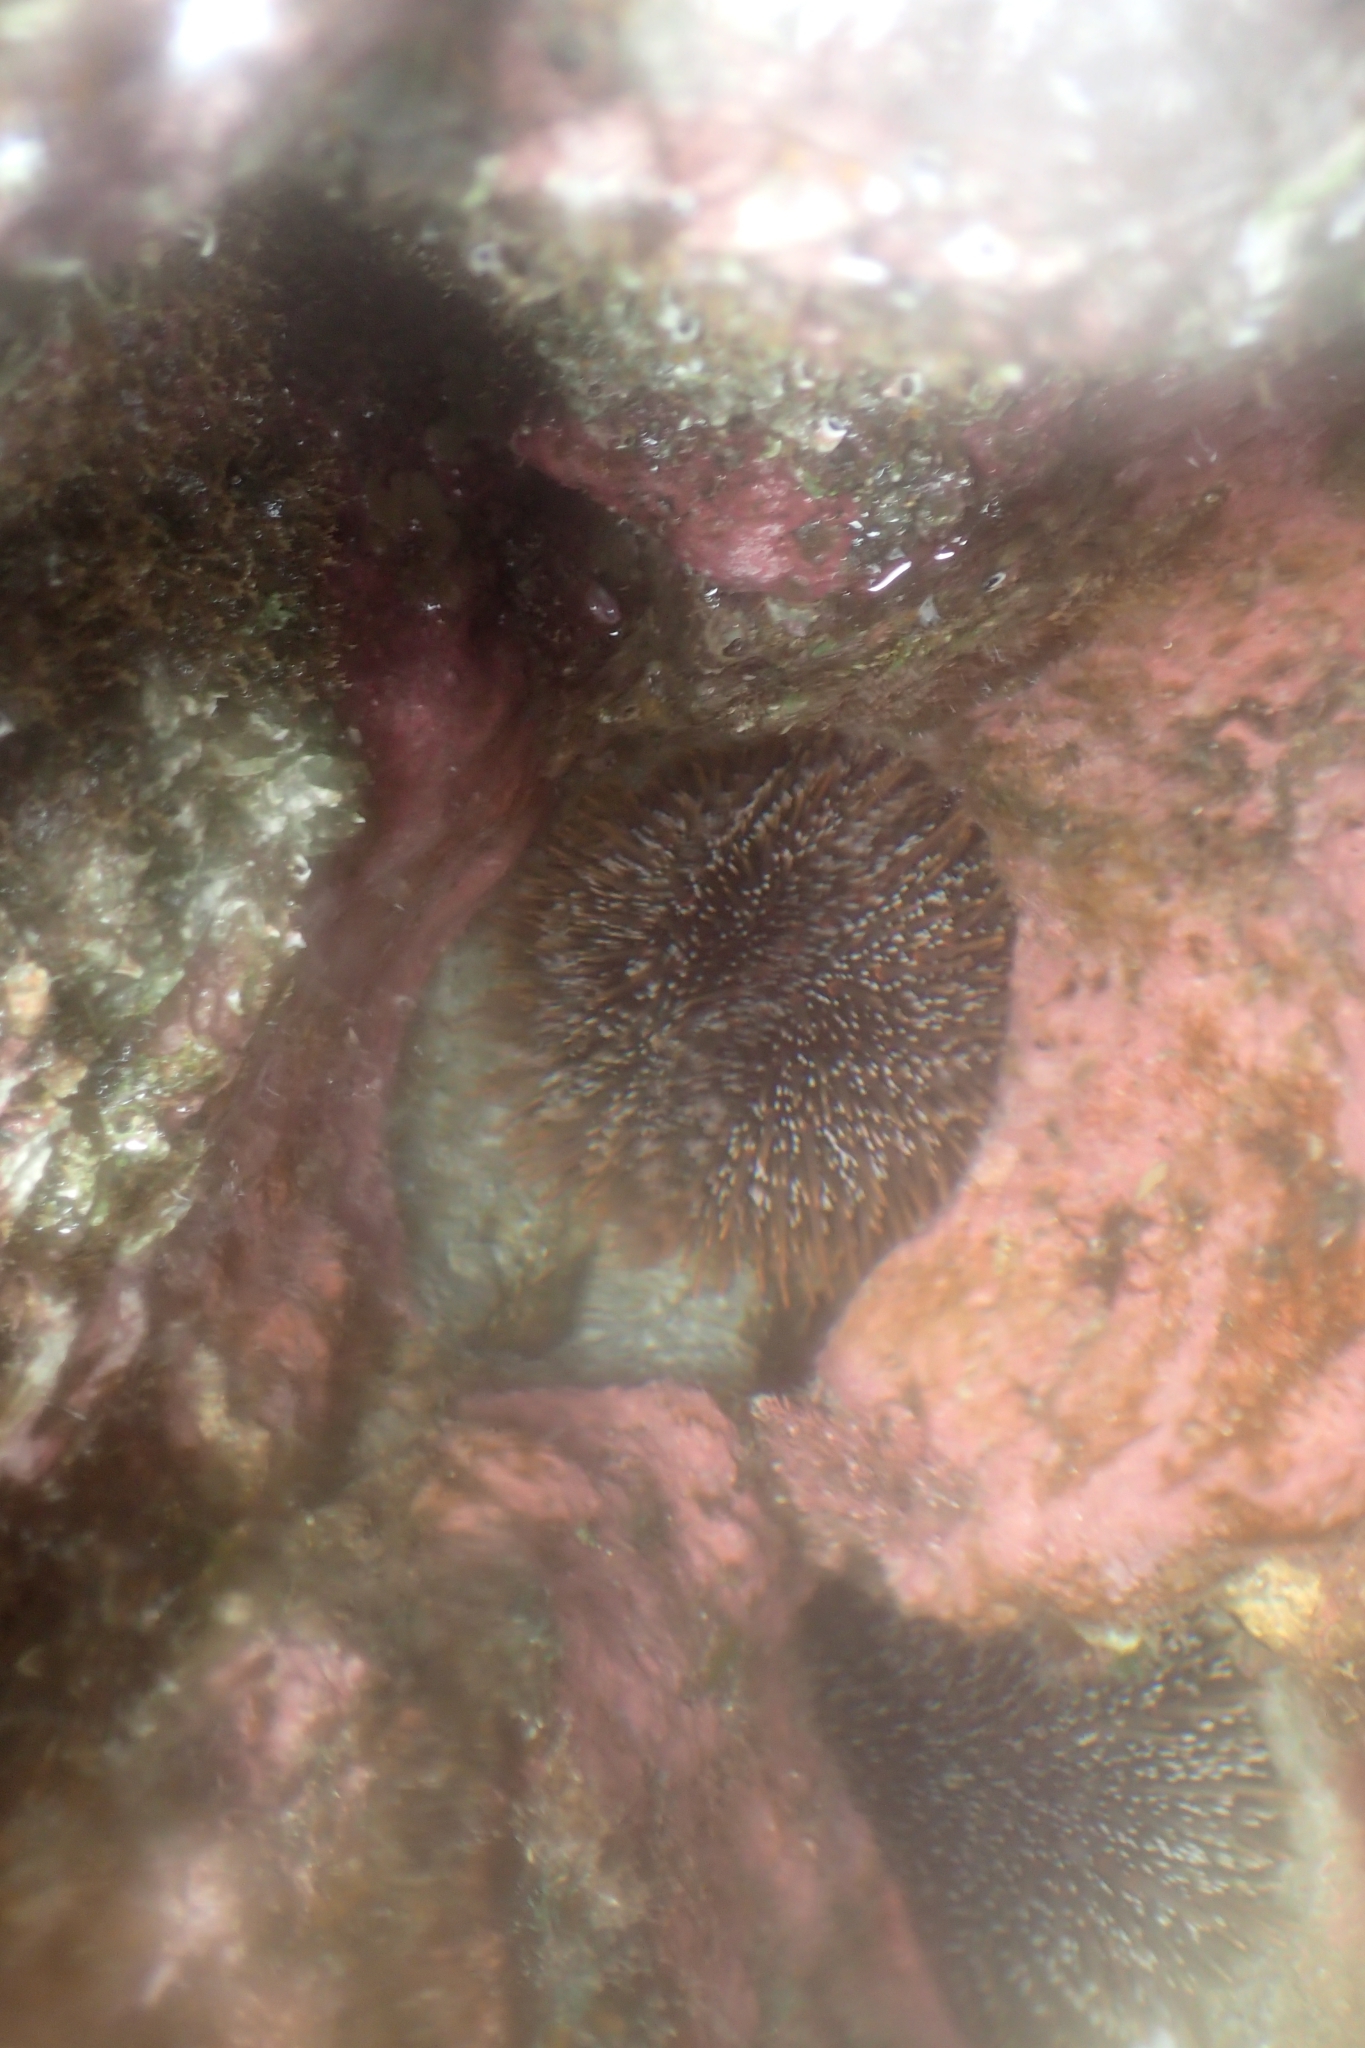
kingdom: Animalia
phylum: Echinodermata
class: Echinoidea
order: Camarodonta
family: Echinometridae
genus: Evechinus
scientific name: Evechinus chloroticus
